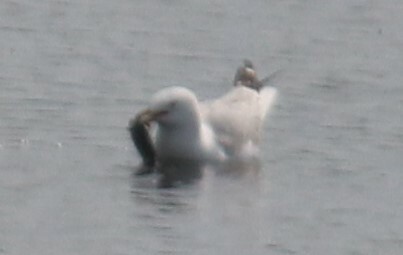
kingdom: Animalia
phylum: Chordata
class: Aves
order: Charadriiformes
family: Laridae
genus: Larus
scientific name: Larus delawarensis
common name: Ring-billed gull
